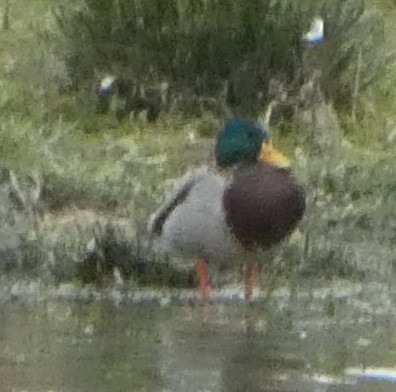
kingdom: Animalia
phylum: Chordata
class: Aves
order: Anseriformes
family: Anatidae
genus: Anas
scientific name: Anas platyrhynchos
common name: Mallard
